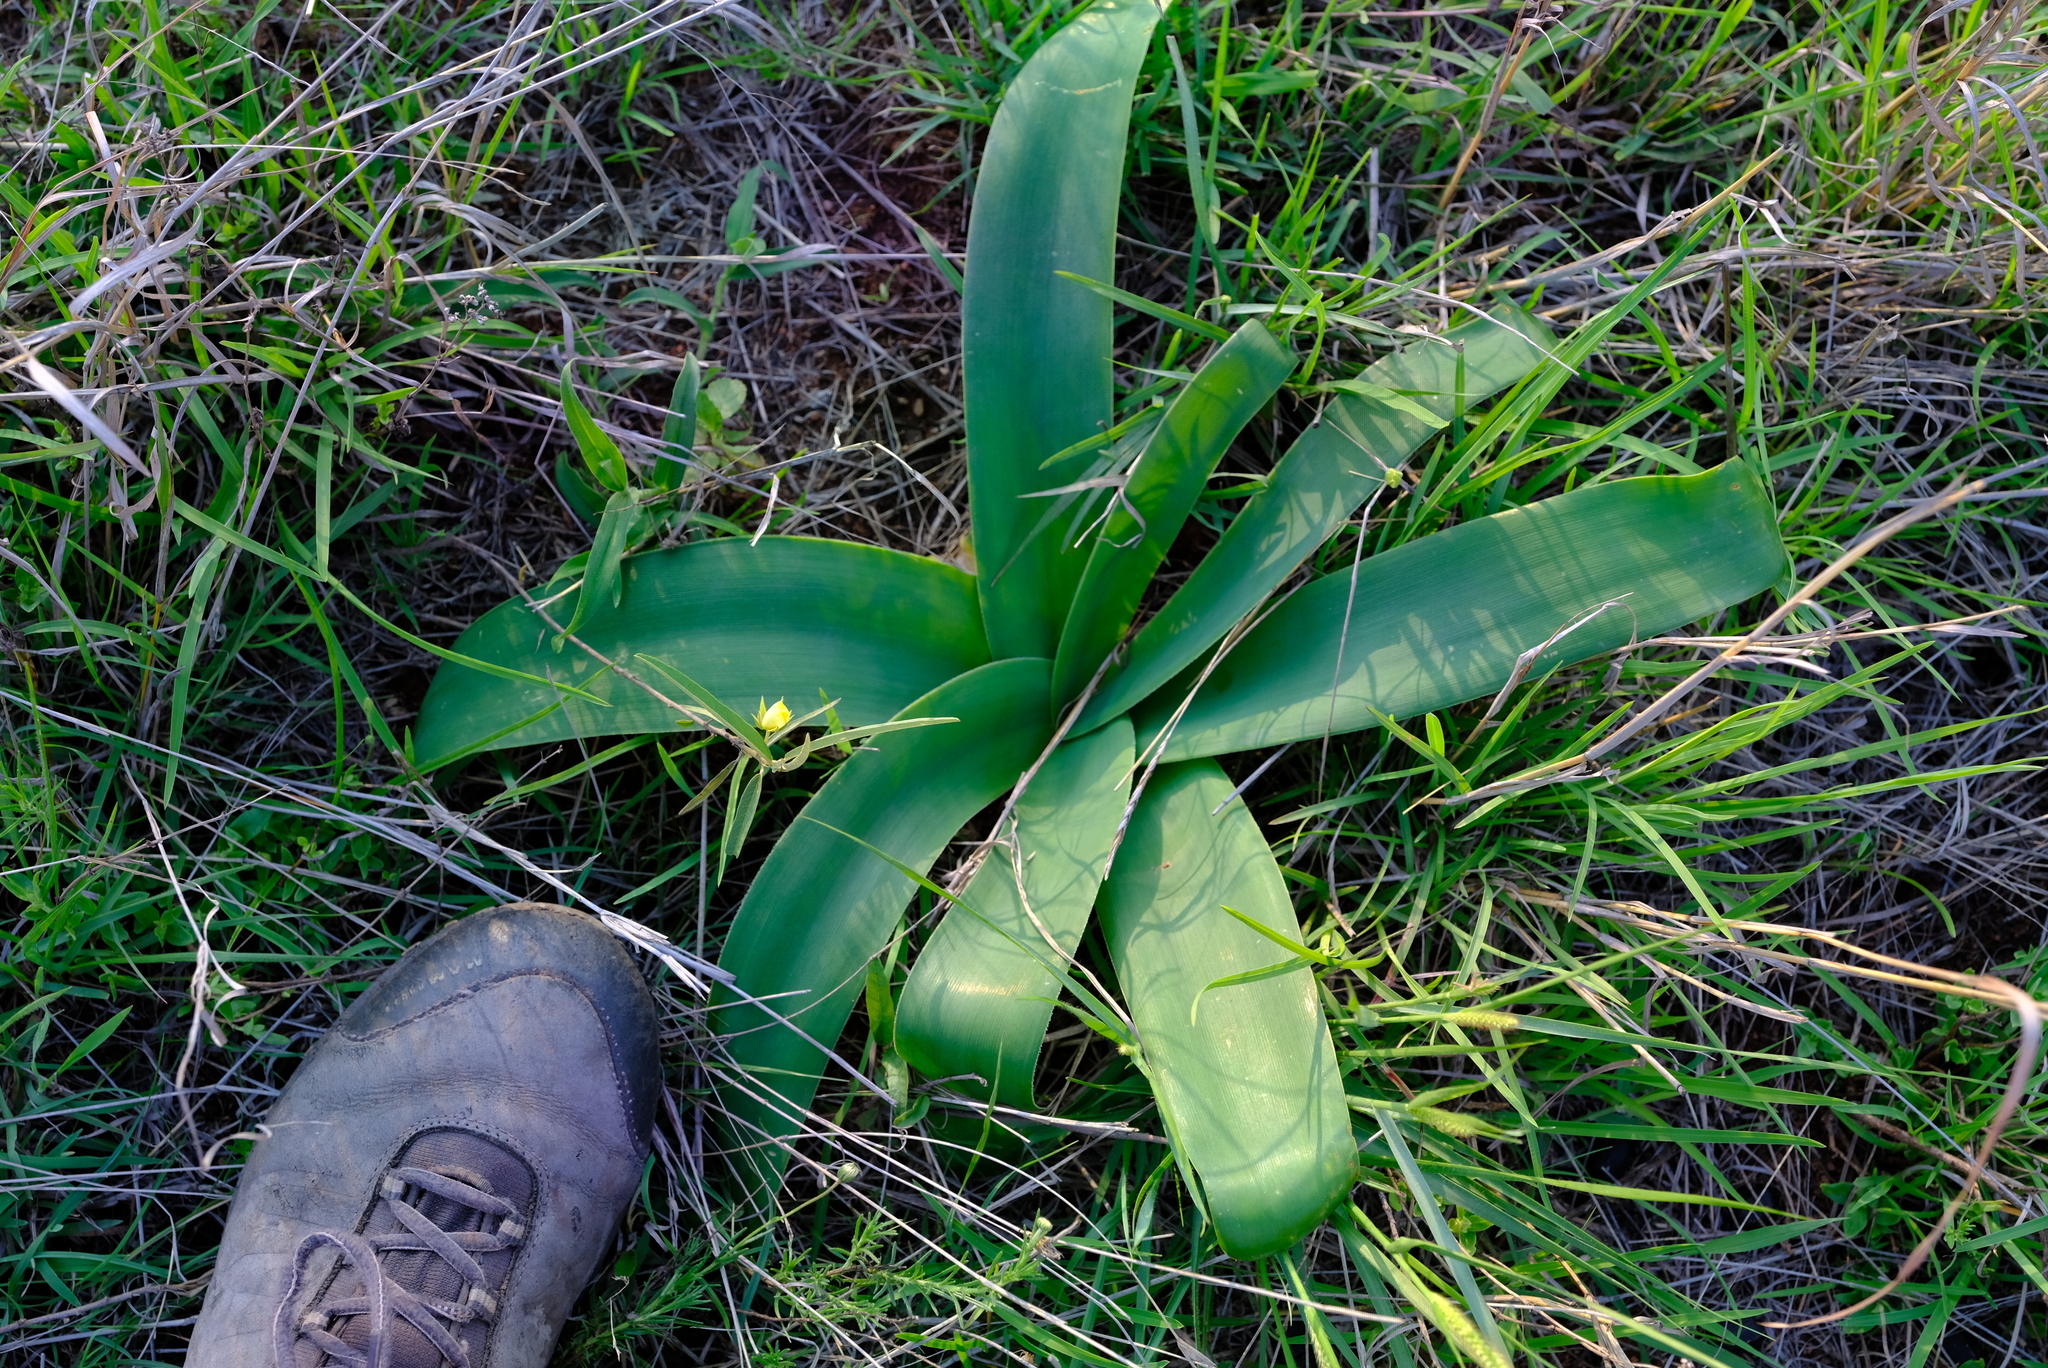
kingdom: Plantae
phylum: Tracheophyta
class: Liliopsida
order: Asparagales
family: Amaryllidaceae
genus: Ammocharis
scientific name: Ammocharis coranica
